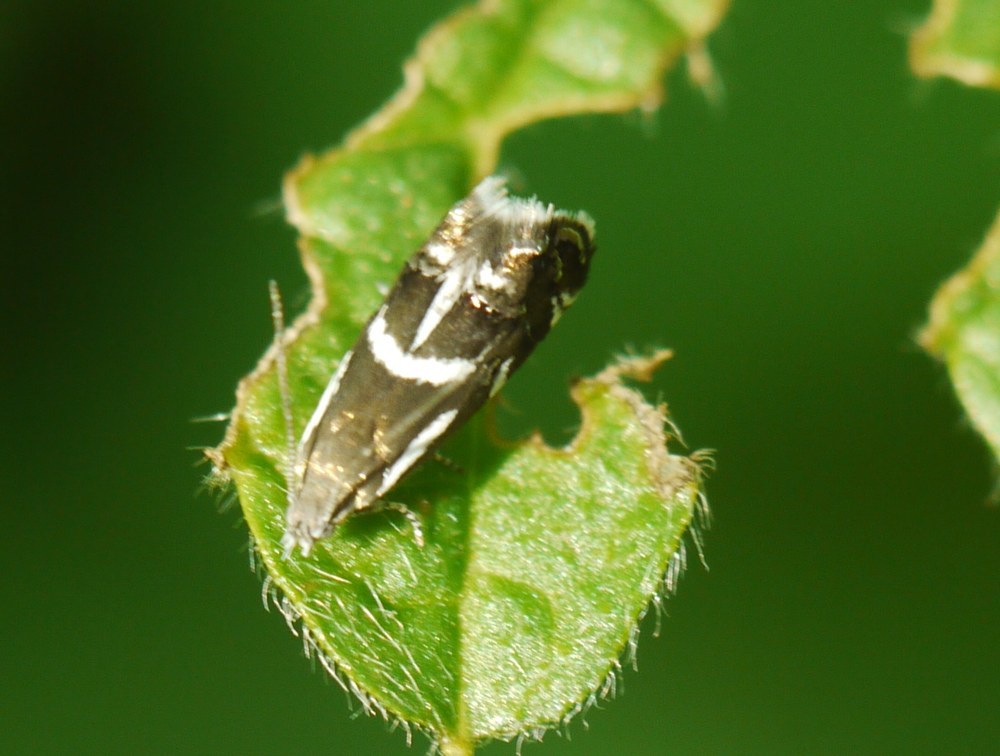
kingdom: Animalia
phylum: Arthropoda
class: Insecta
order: Lepidoptera
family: Choreutidae
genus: Millieria
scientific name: Millieria dolosalis
